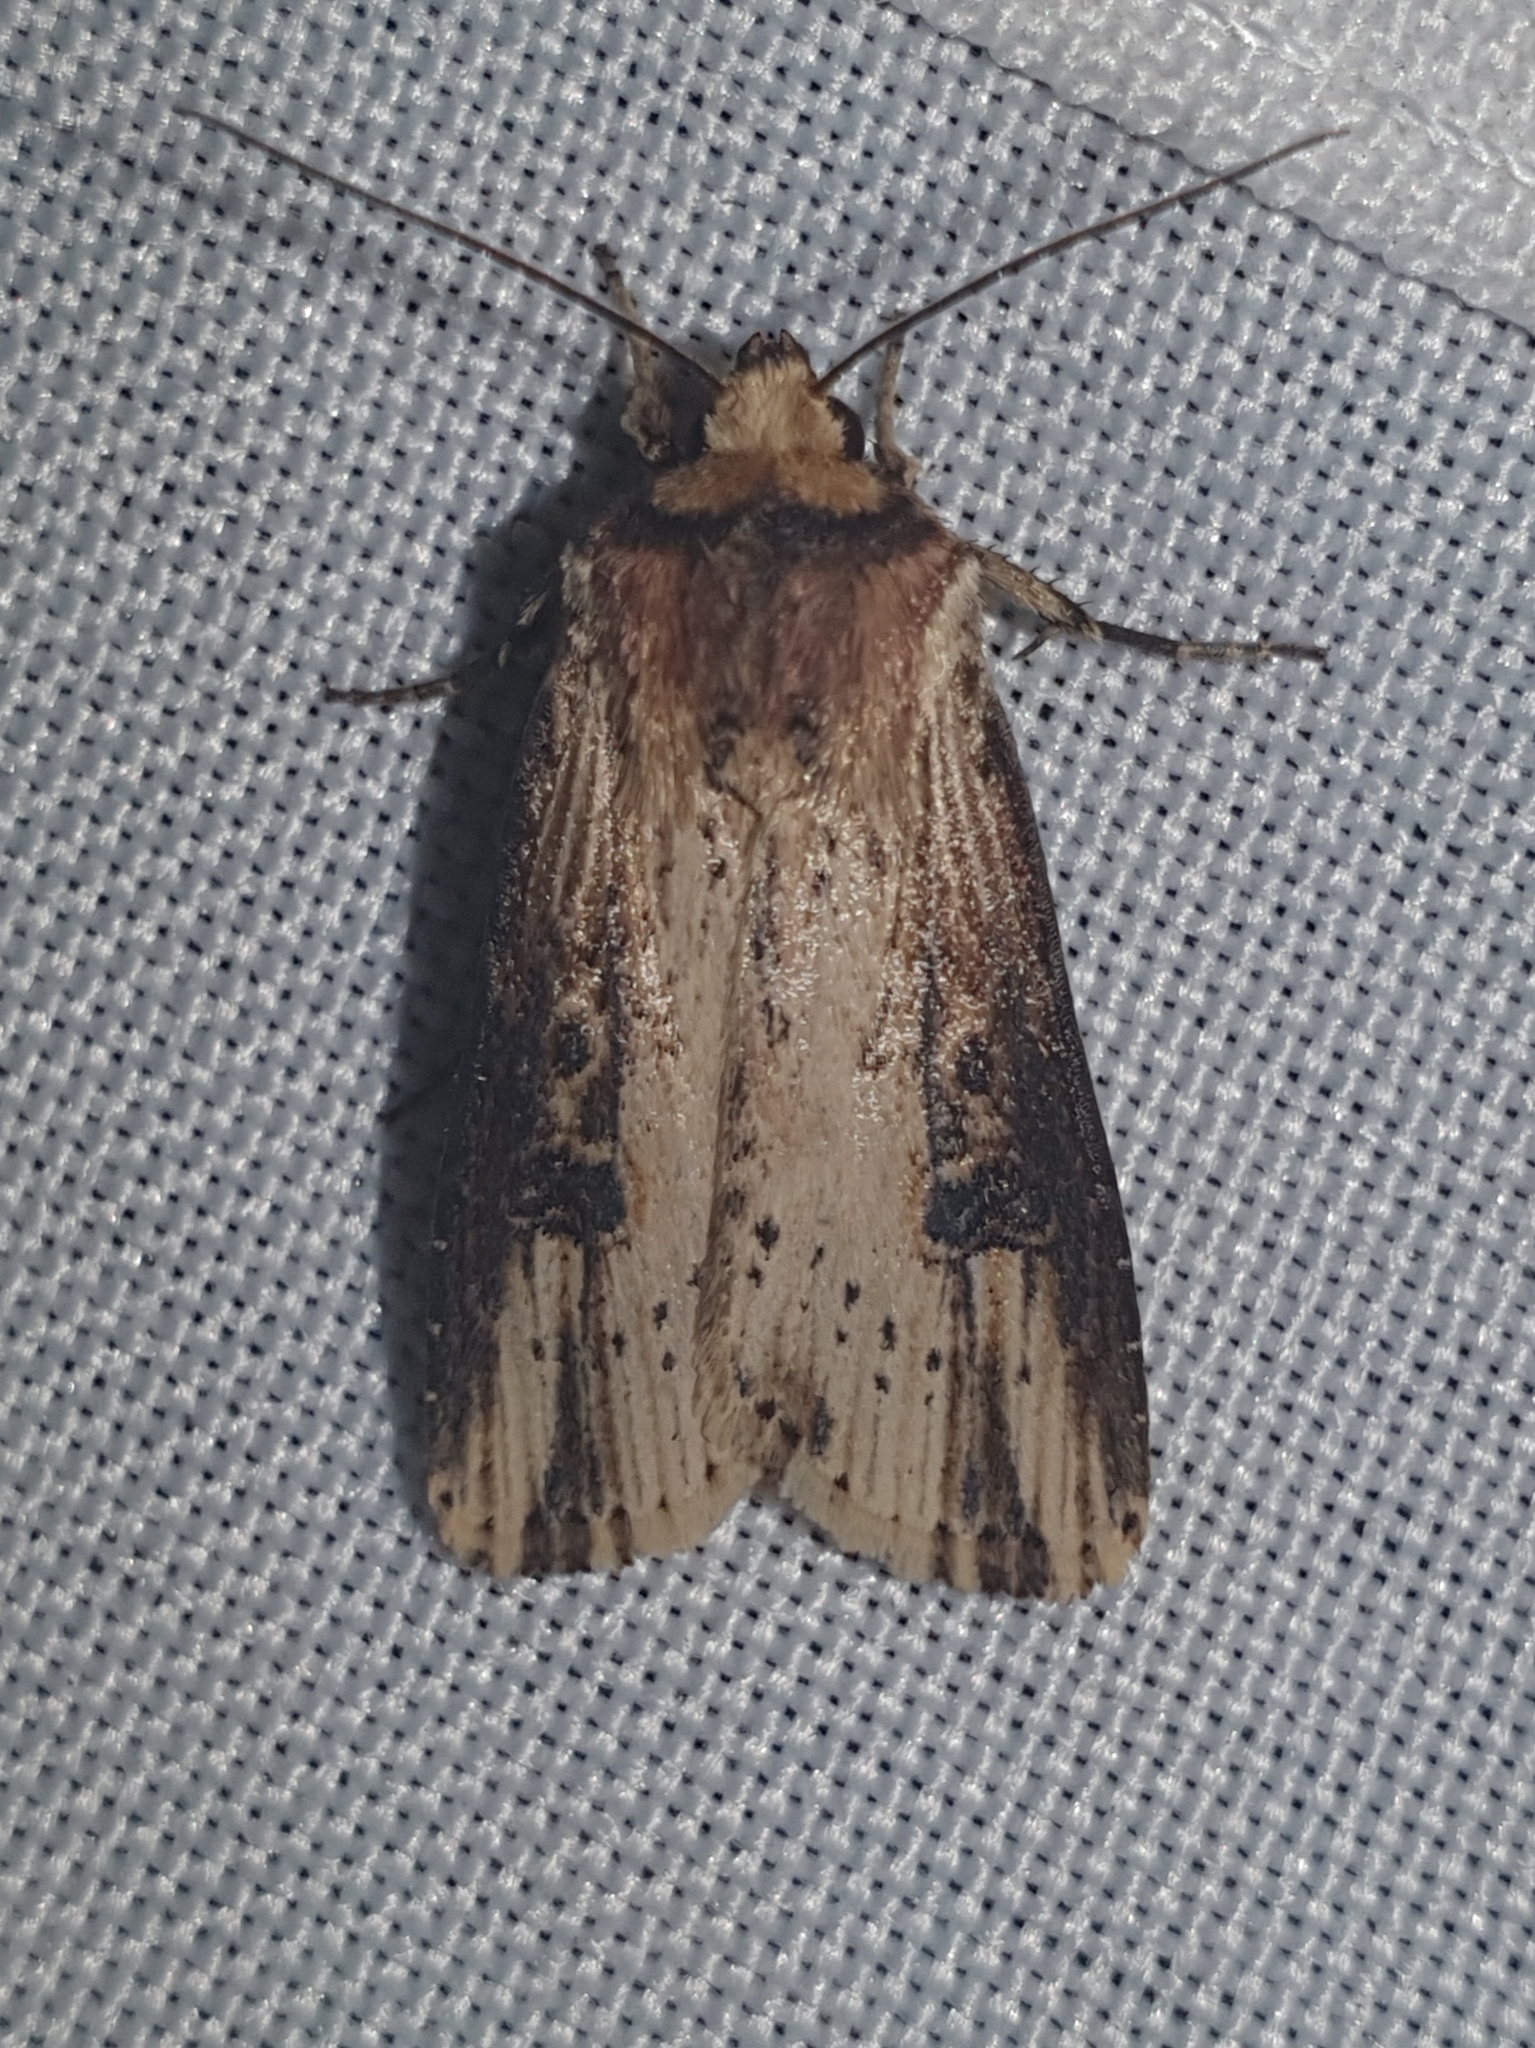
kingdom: Animalia
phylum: Arthropoda
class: Insecta
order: Lepidoptera
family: Noctuidae
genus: Axylia
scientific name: Axylia putris
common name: Flame
